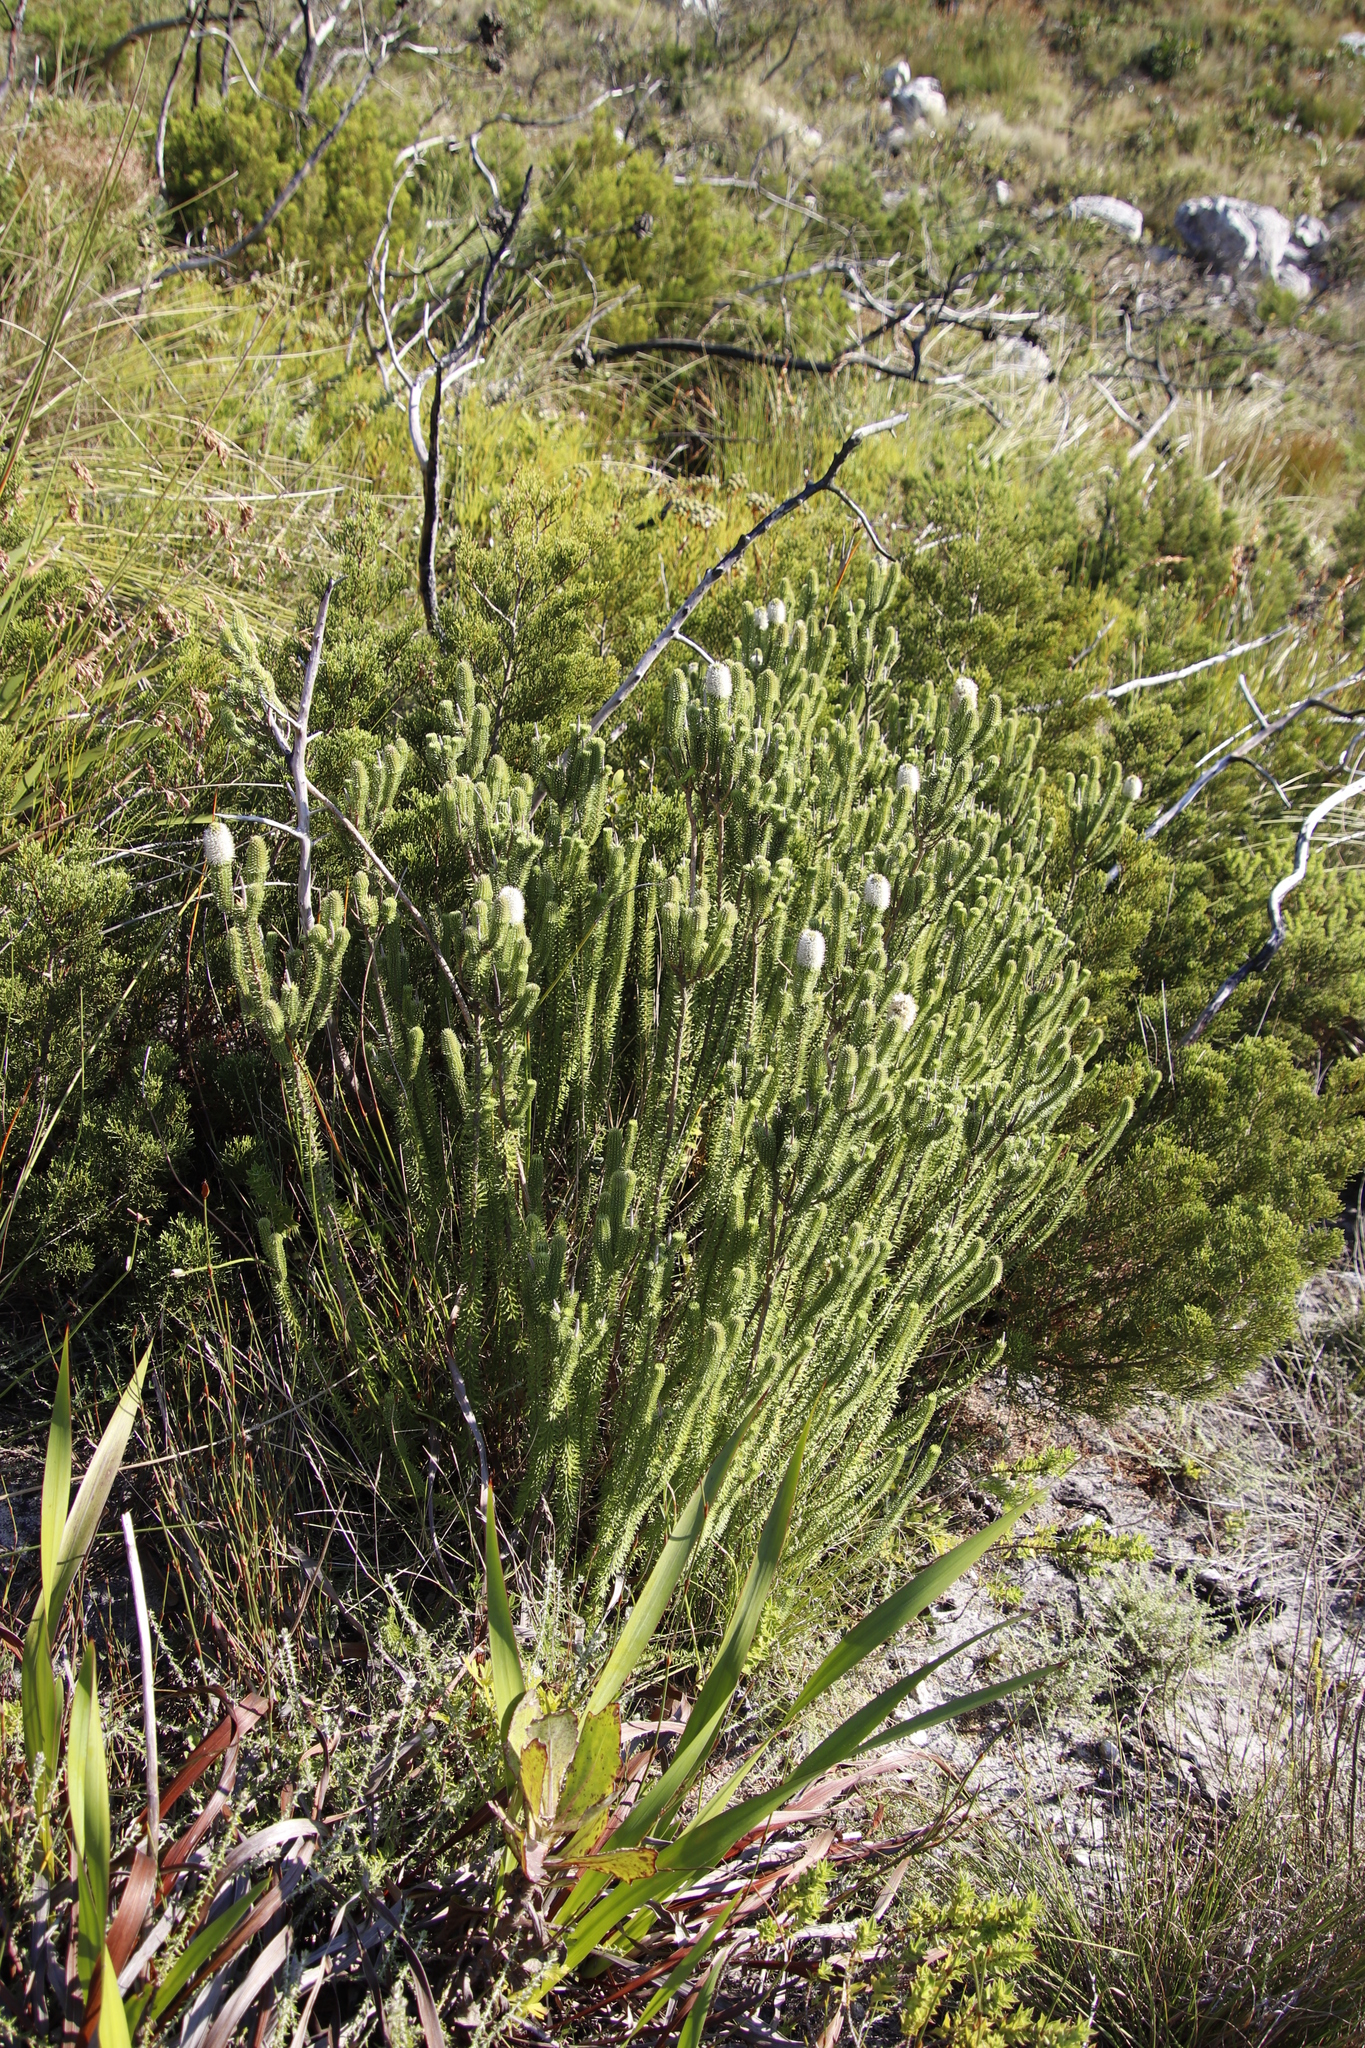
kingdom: Plantae
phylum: Tracheophyta
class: Magnoliopsida
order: Lamiales
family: Stilbaceae
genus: Stilbe
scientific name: Stilbe vestita
